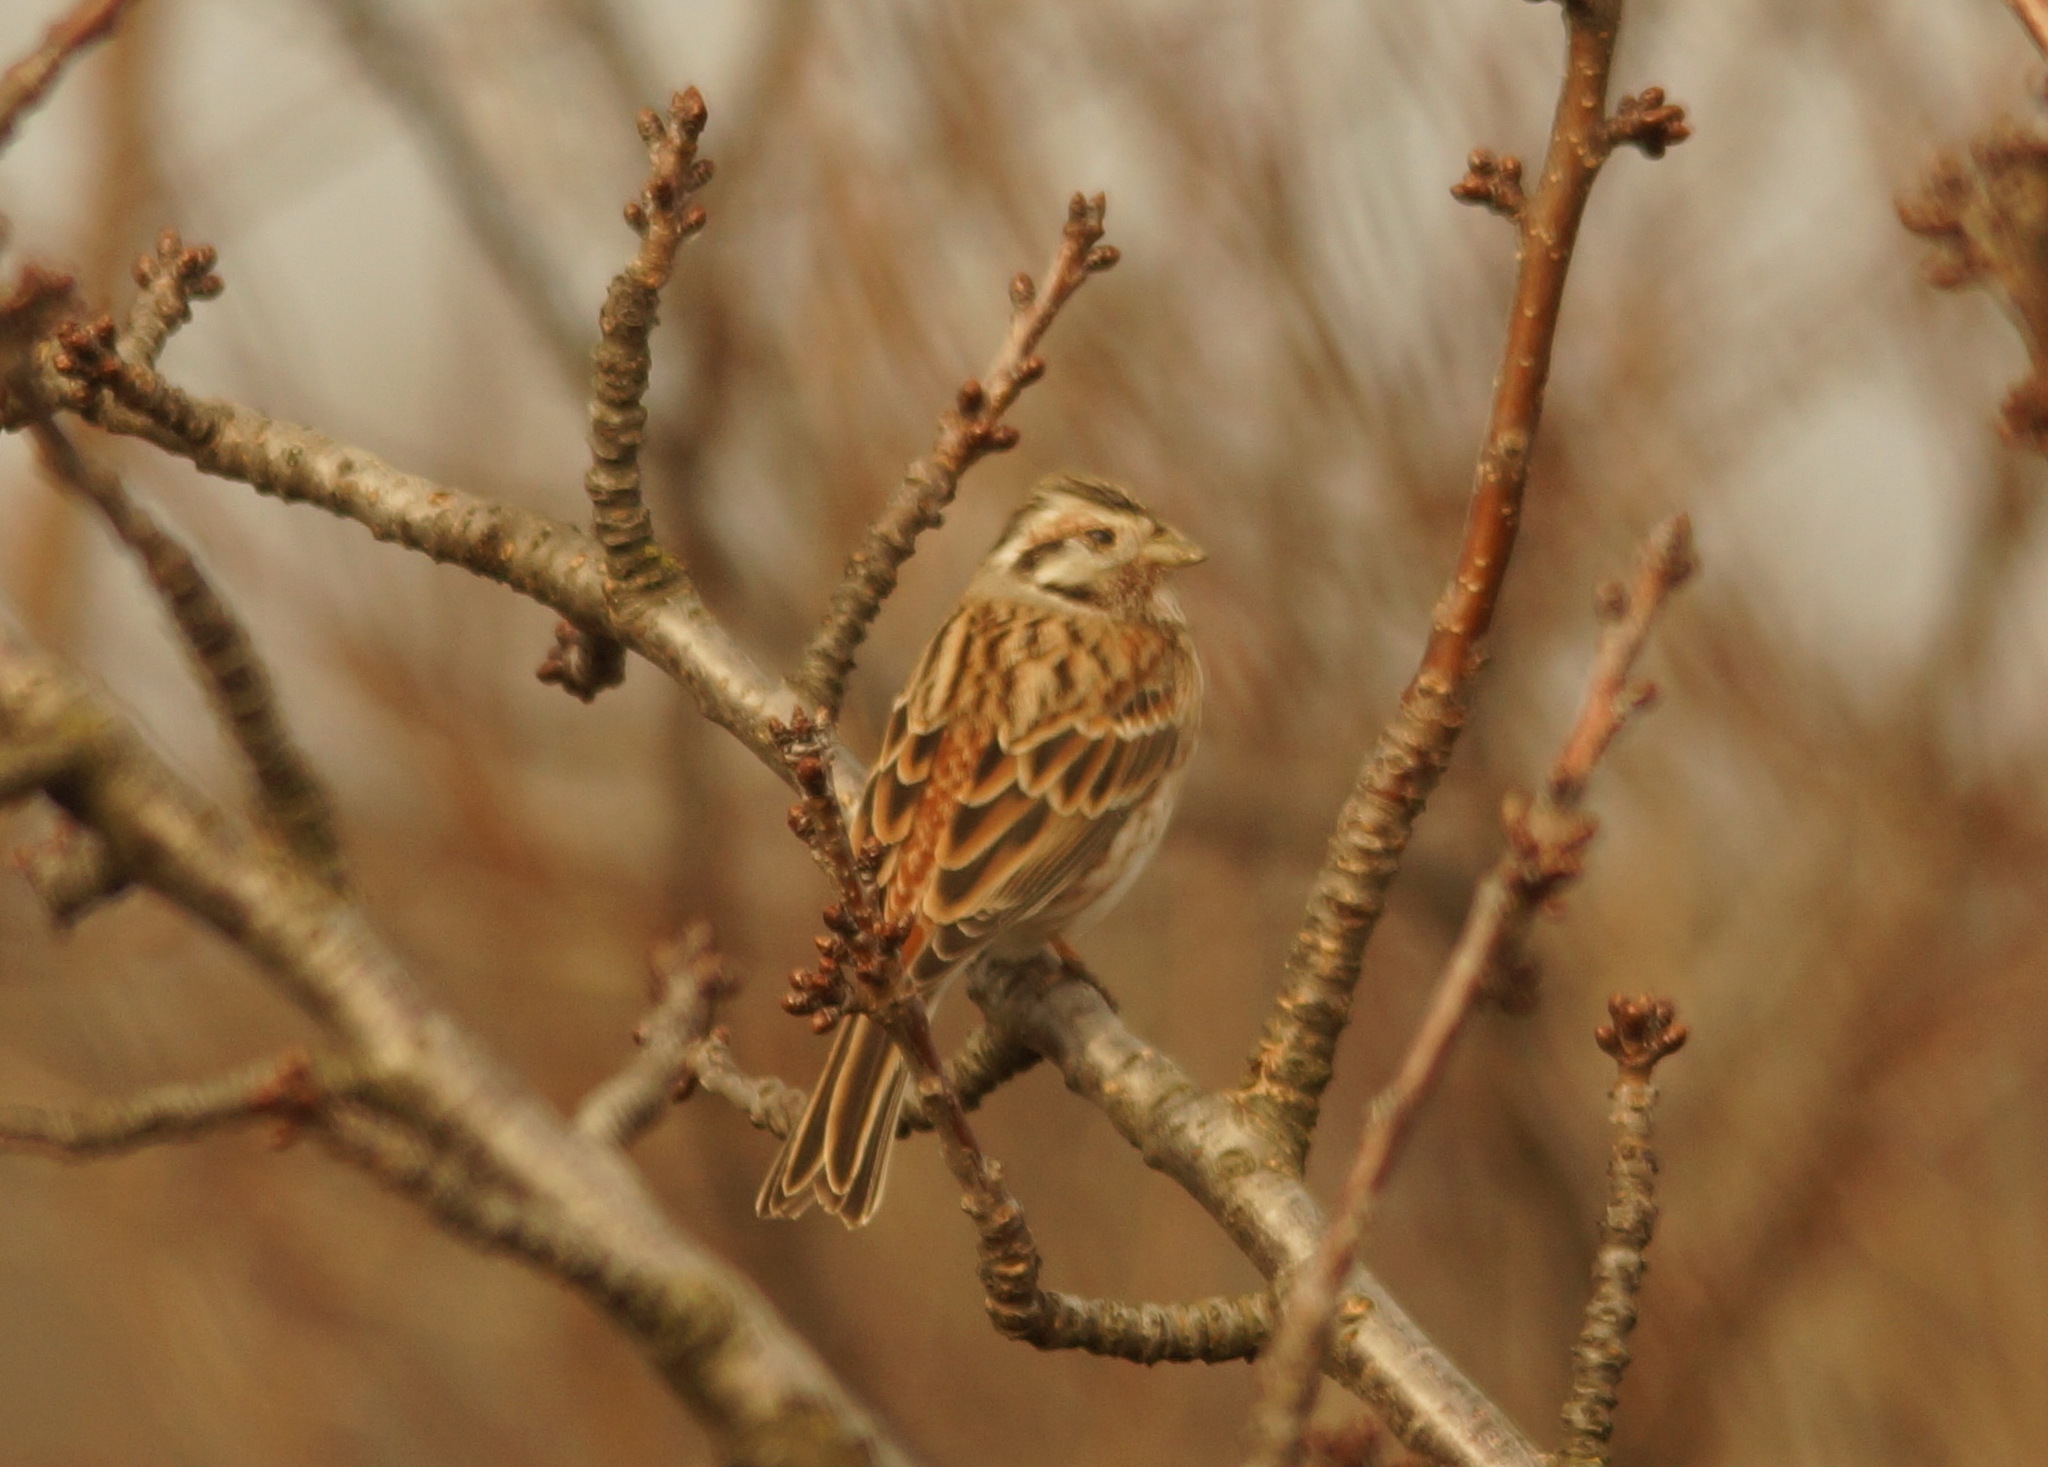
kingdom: Animalia
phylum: Chordata
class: Aves
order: Passeriformes
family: Emberizidae
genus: Emberiza
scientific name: Emberiza leucocephalos
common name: Pine bunting
